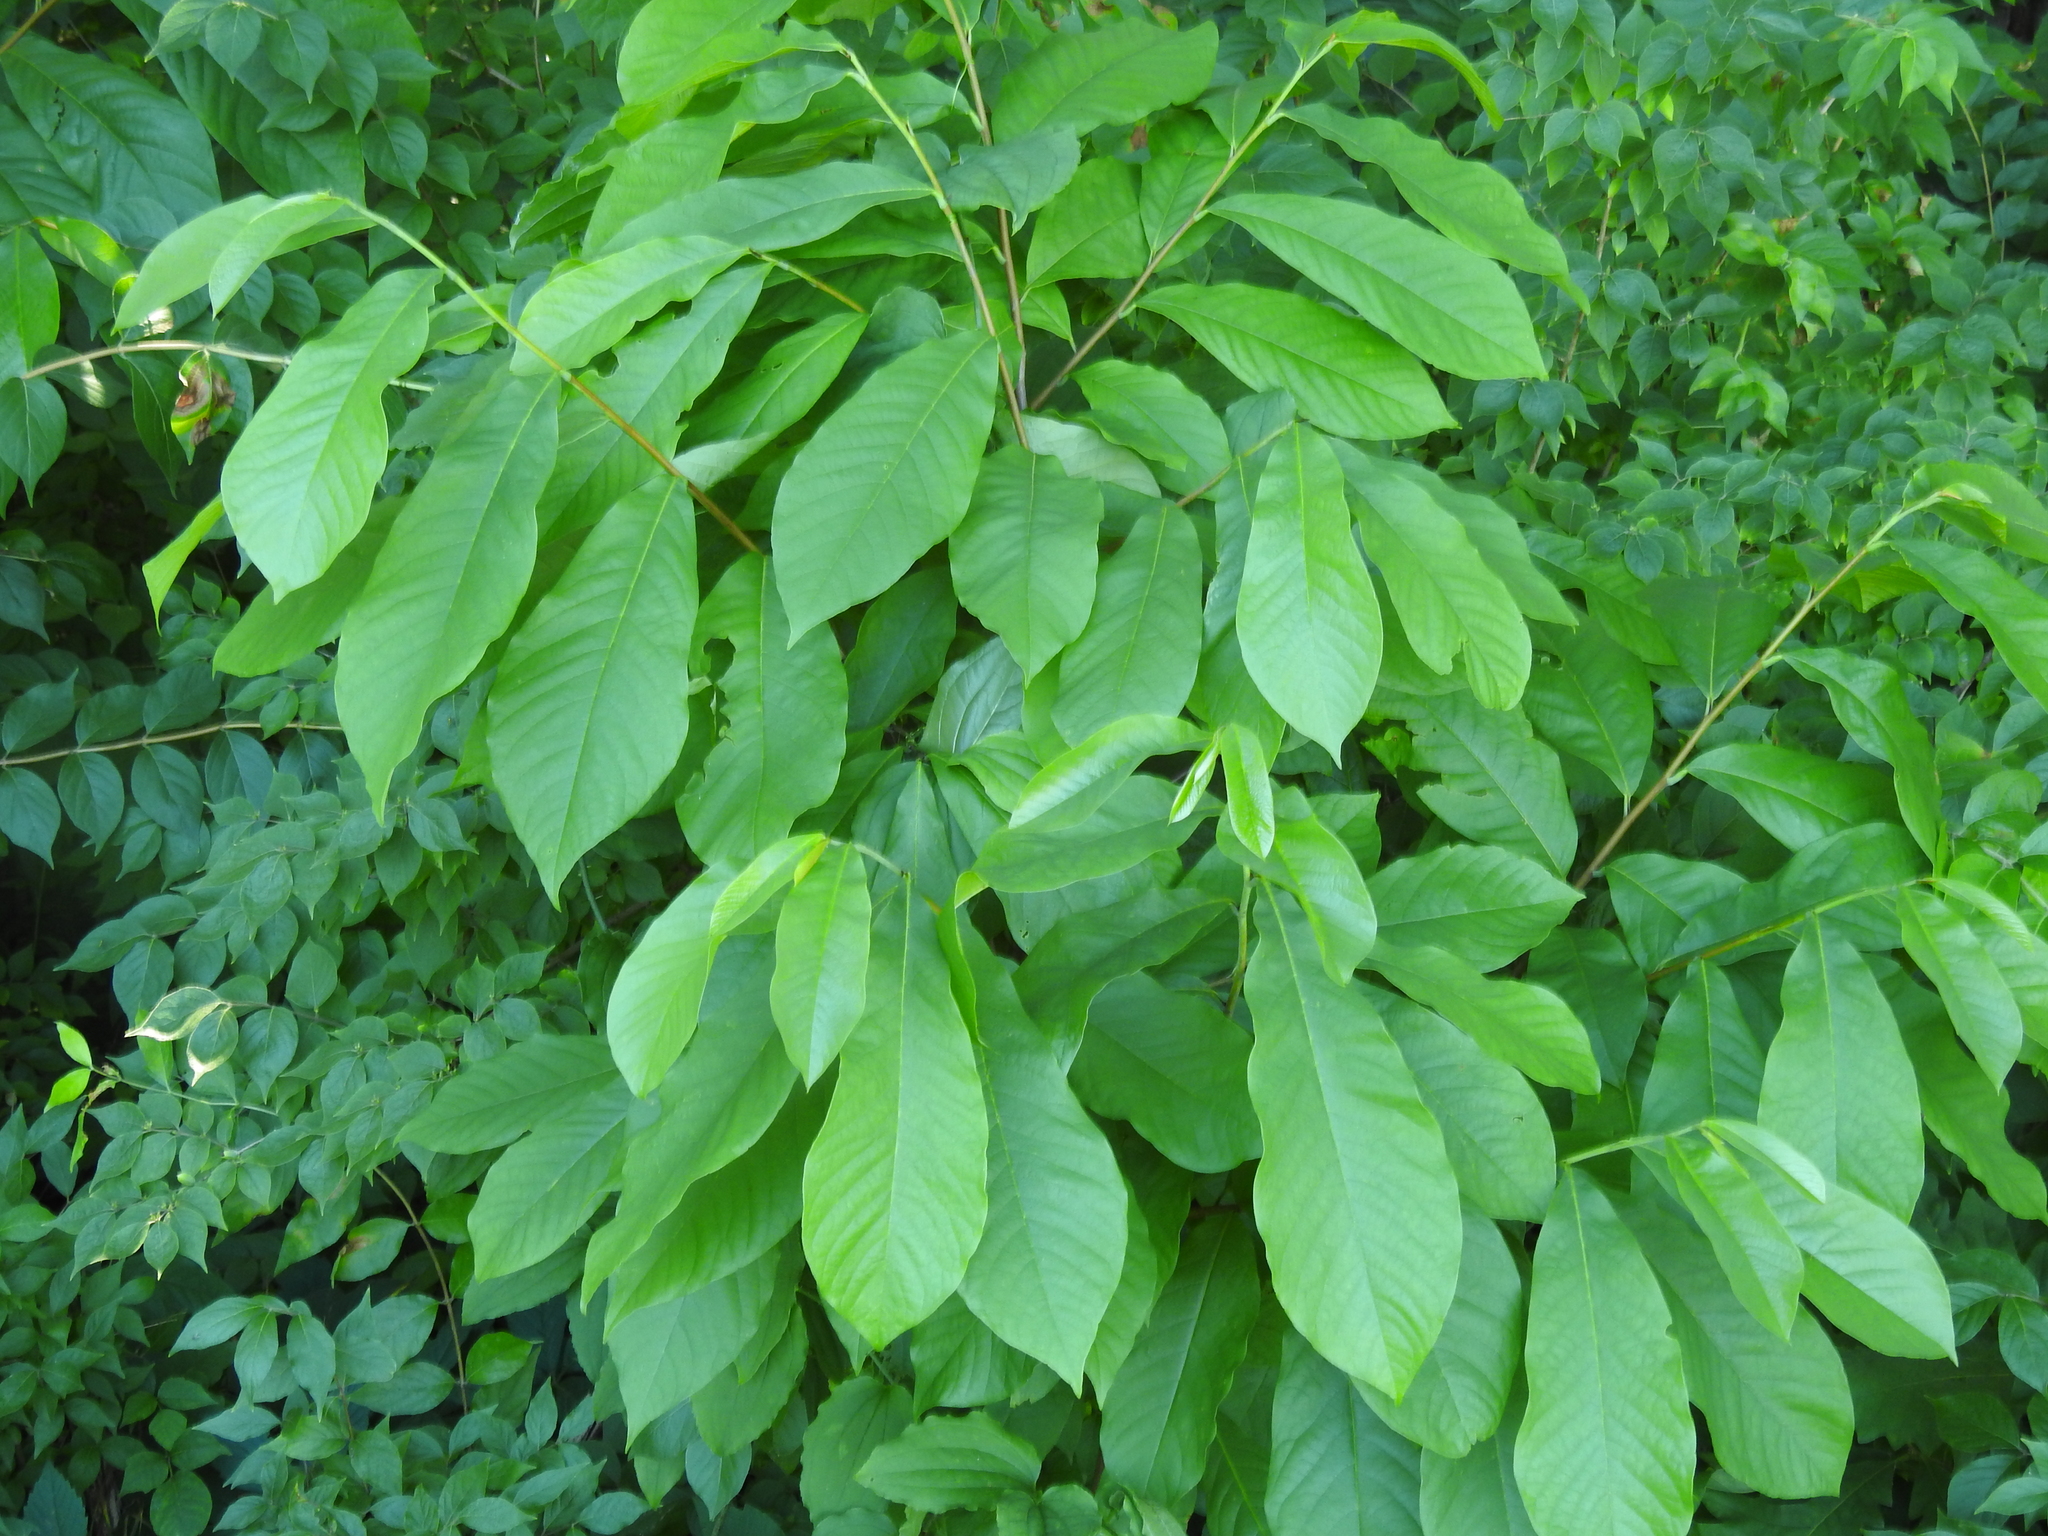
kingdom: Plantae
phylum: Tracheophyta
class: Magnoliopsida
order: Magnoliales
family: Annonaceae
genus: Asimina
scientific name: Asimina triloba
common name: Dog-banana
